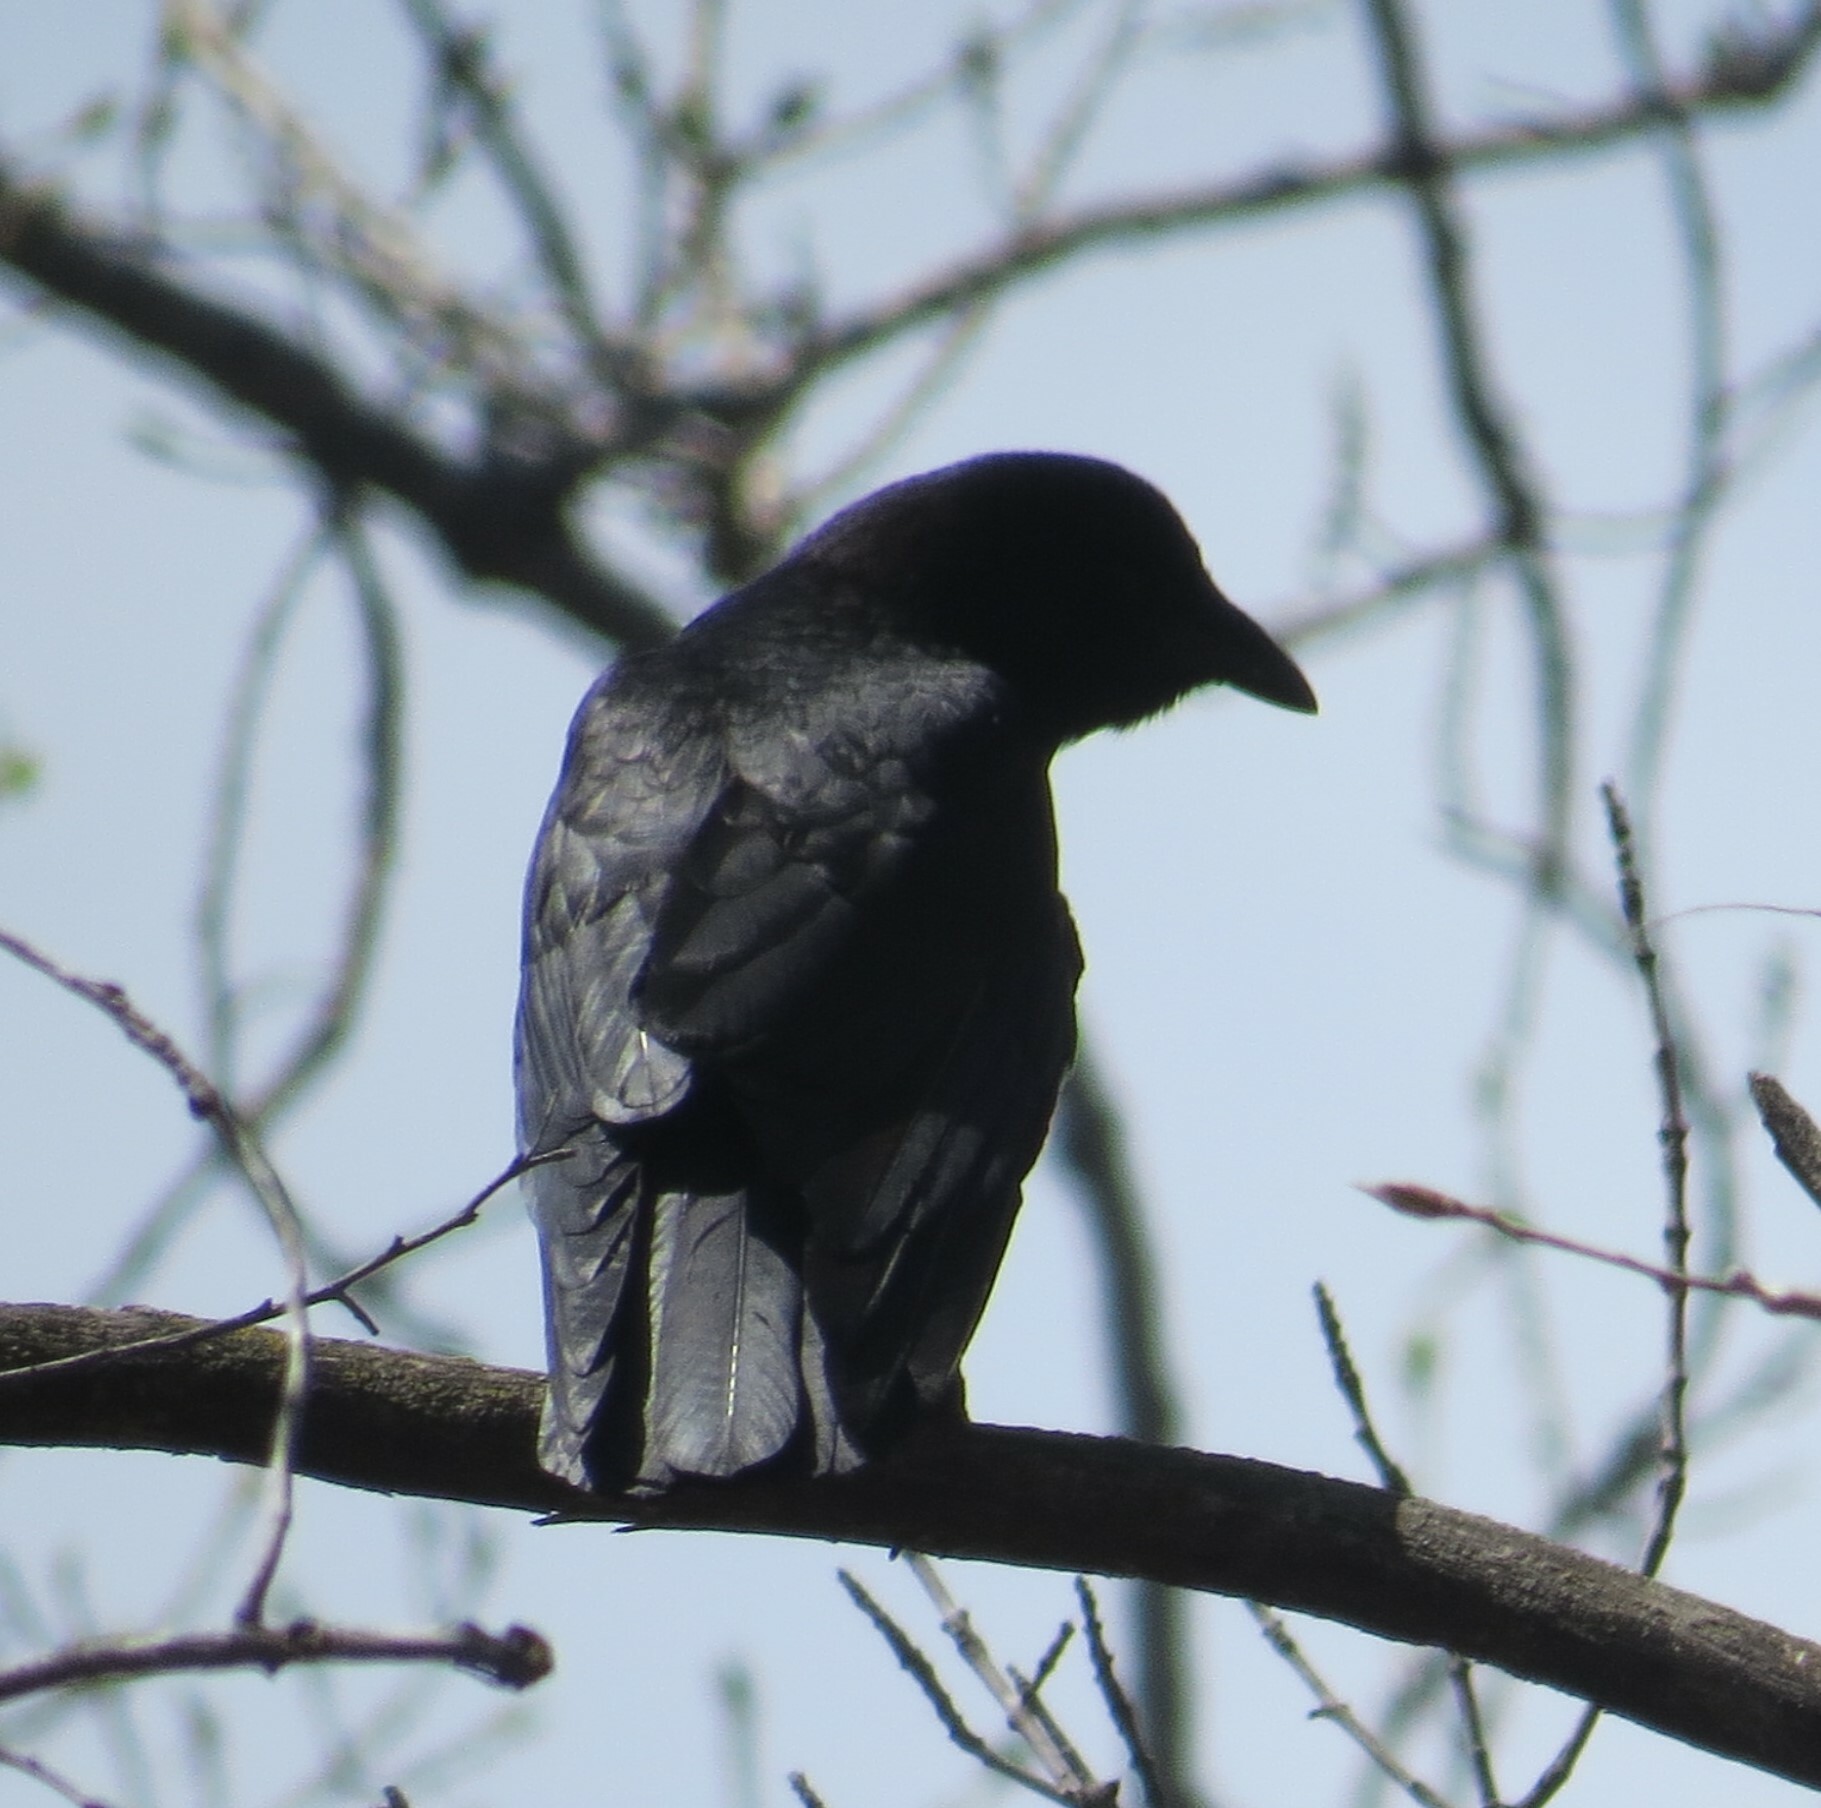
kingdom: Animalia
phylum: Chordata
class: Aves
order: Passeriformes
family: Corvidae
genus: Corvus
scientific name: Corvus brachyrhynchos
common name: American crow
